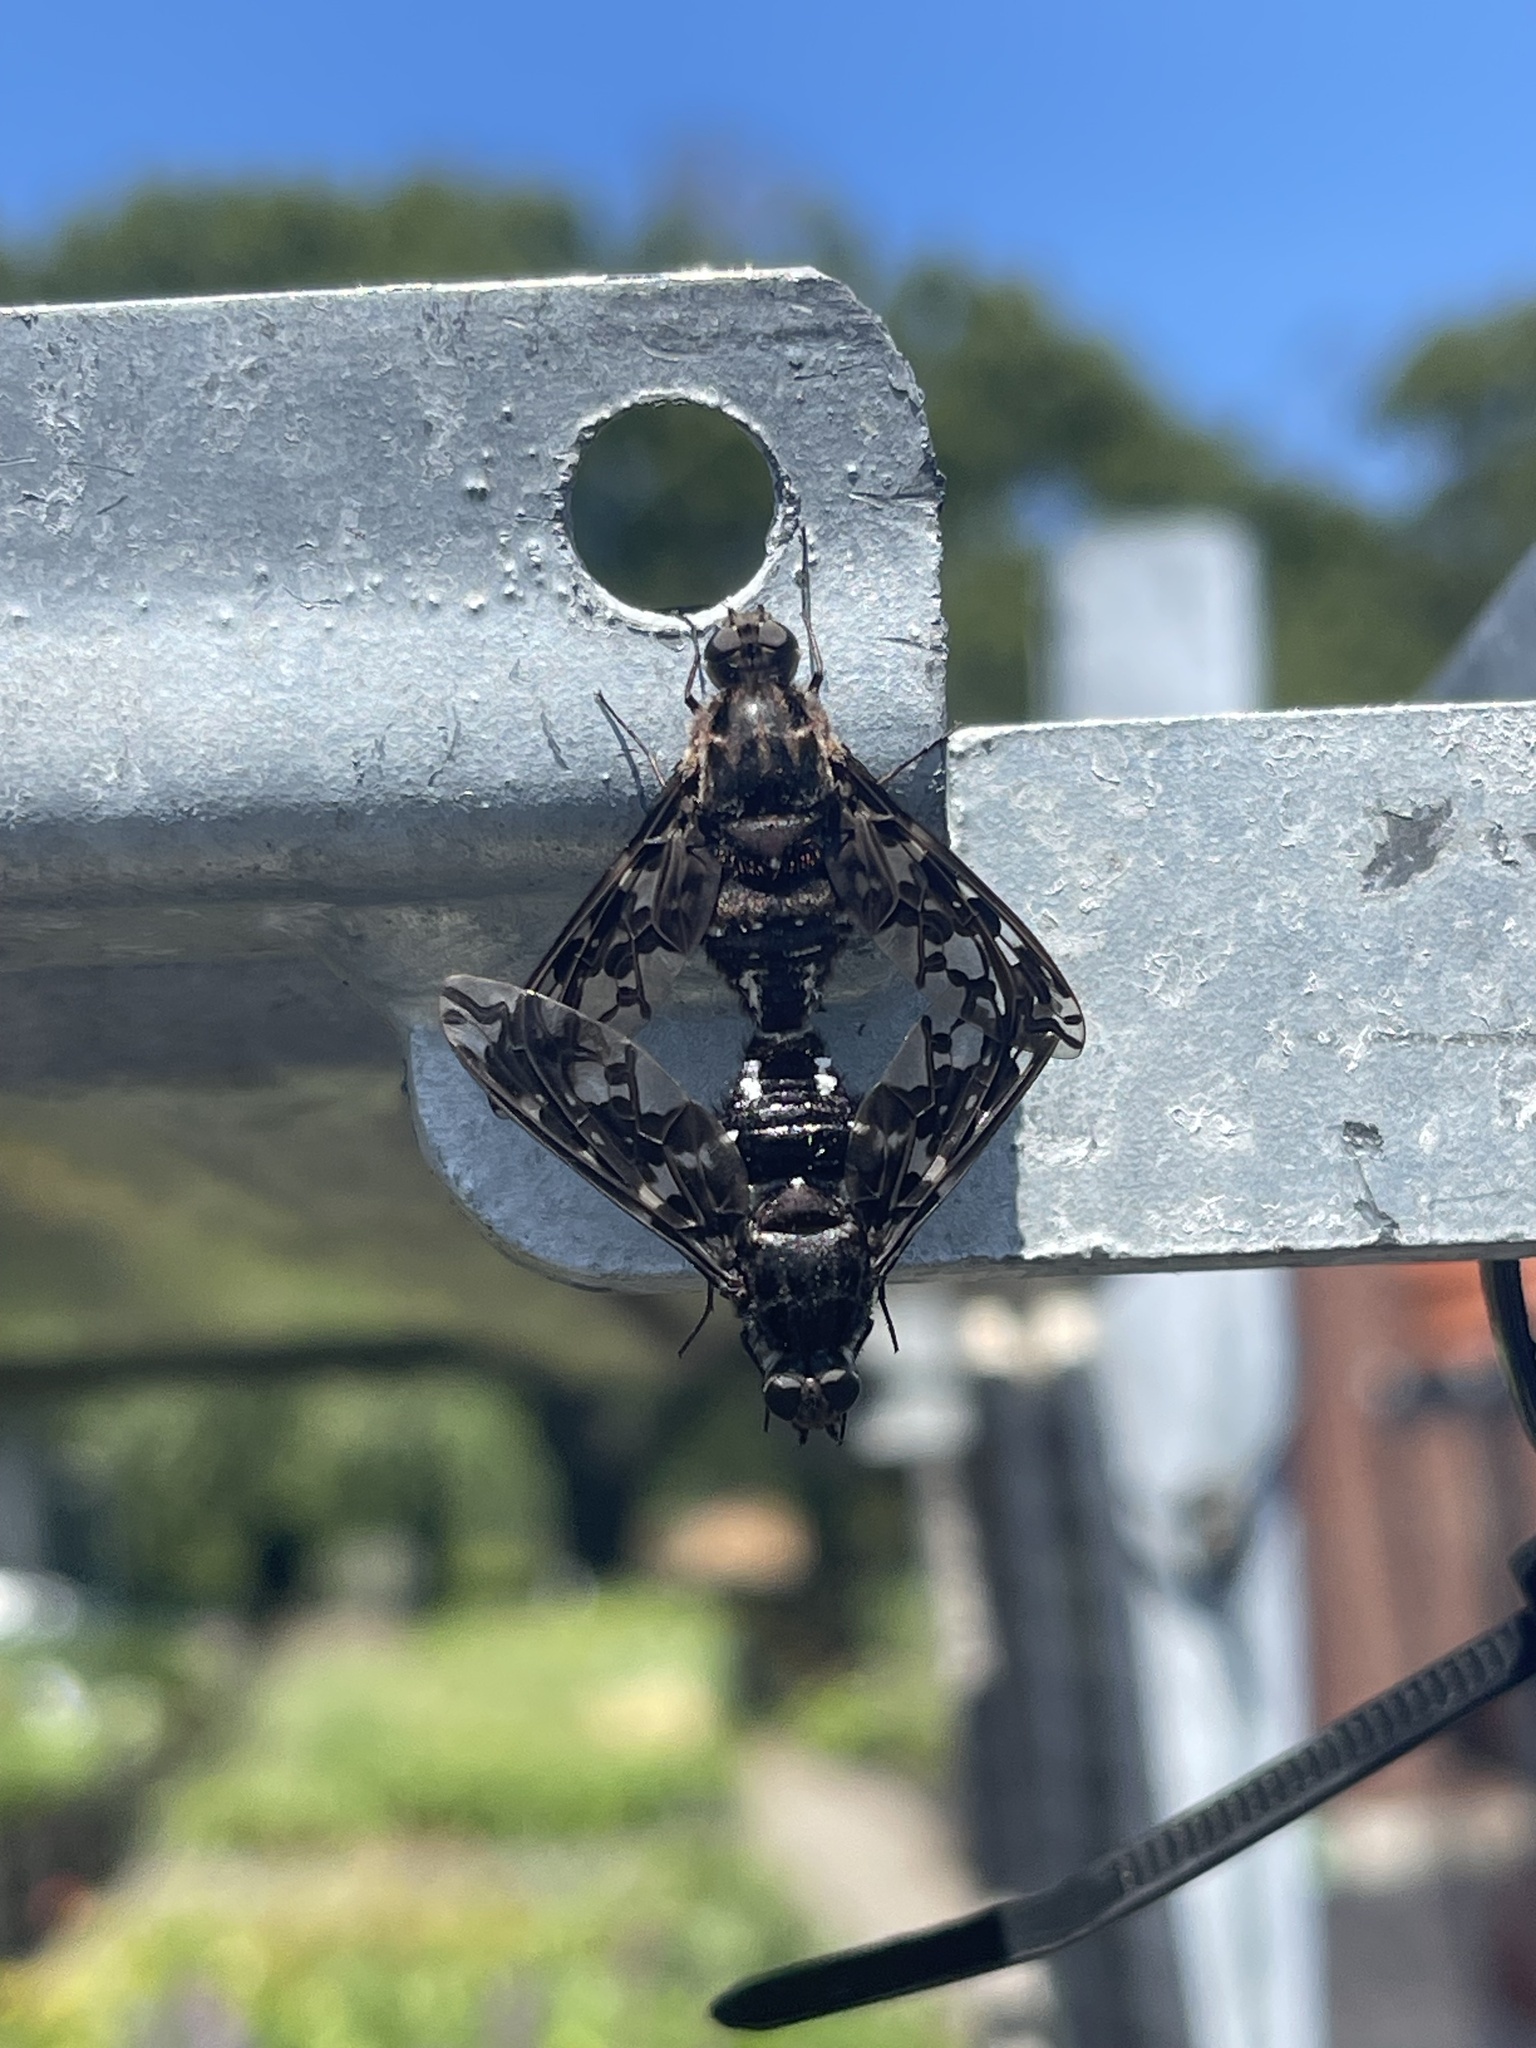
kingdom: Animalia
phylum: Arthropoda
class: Insecta
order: Diptera
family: Bombyliidae
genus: Xenox
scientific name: Xenox tigrinus
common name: Tiger bee fly
